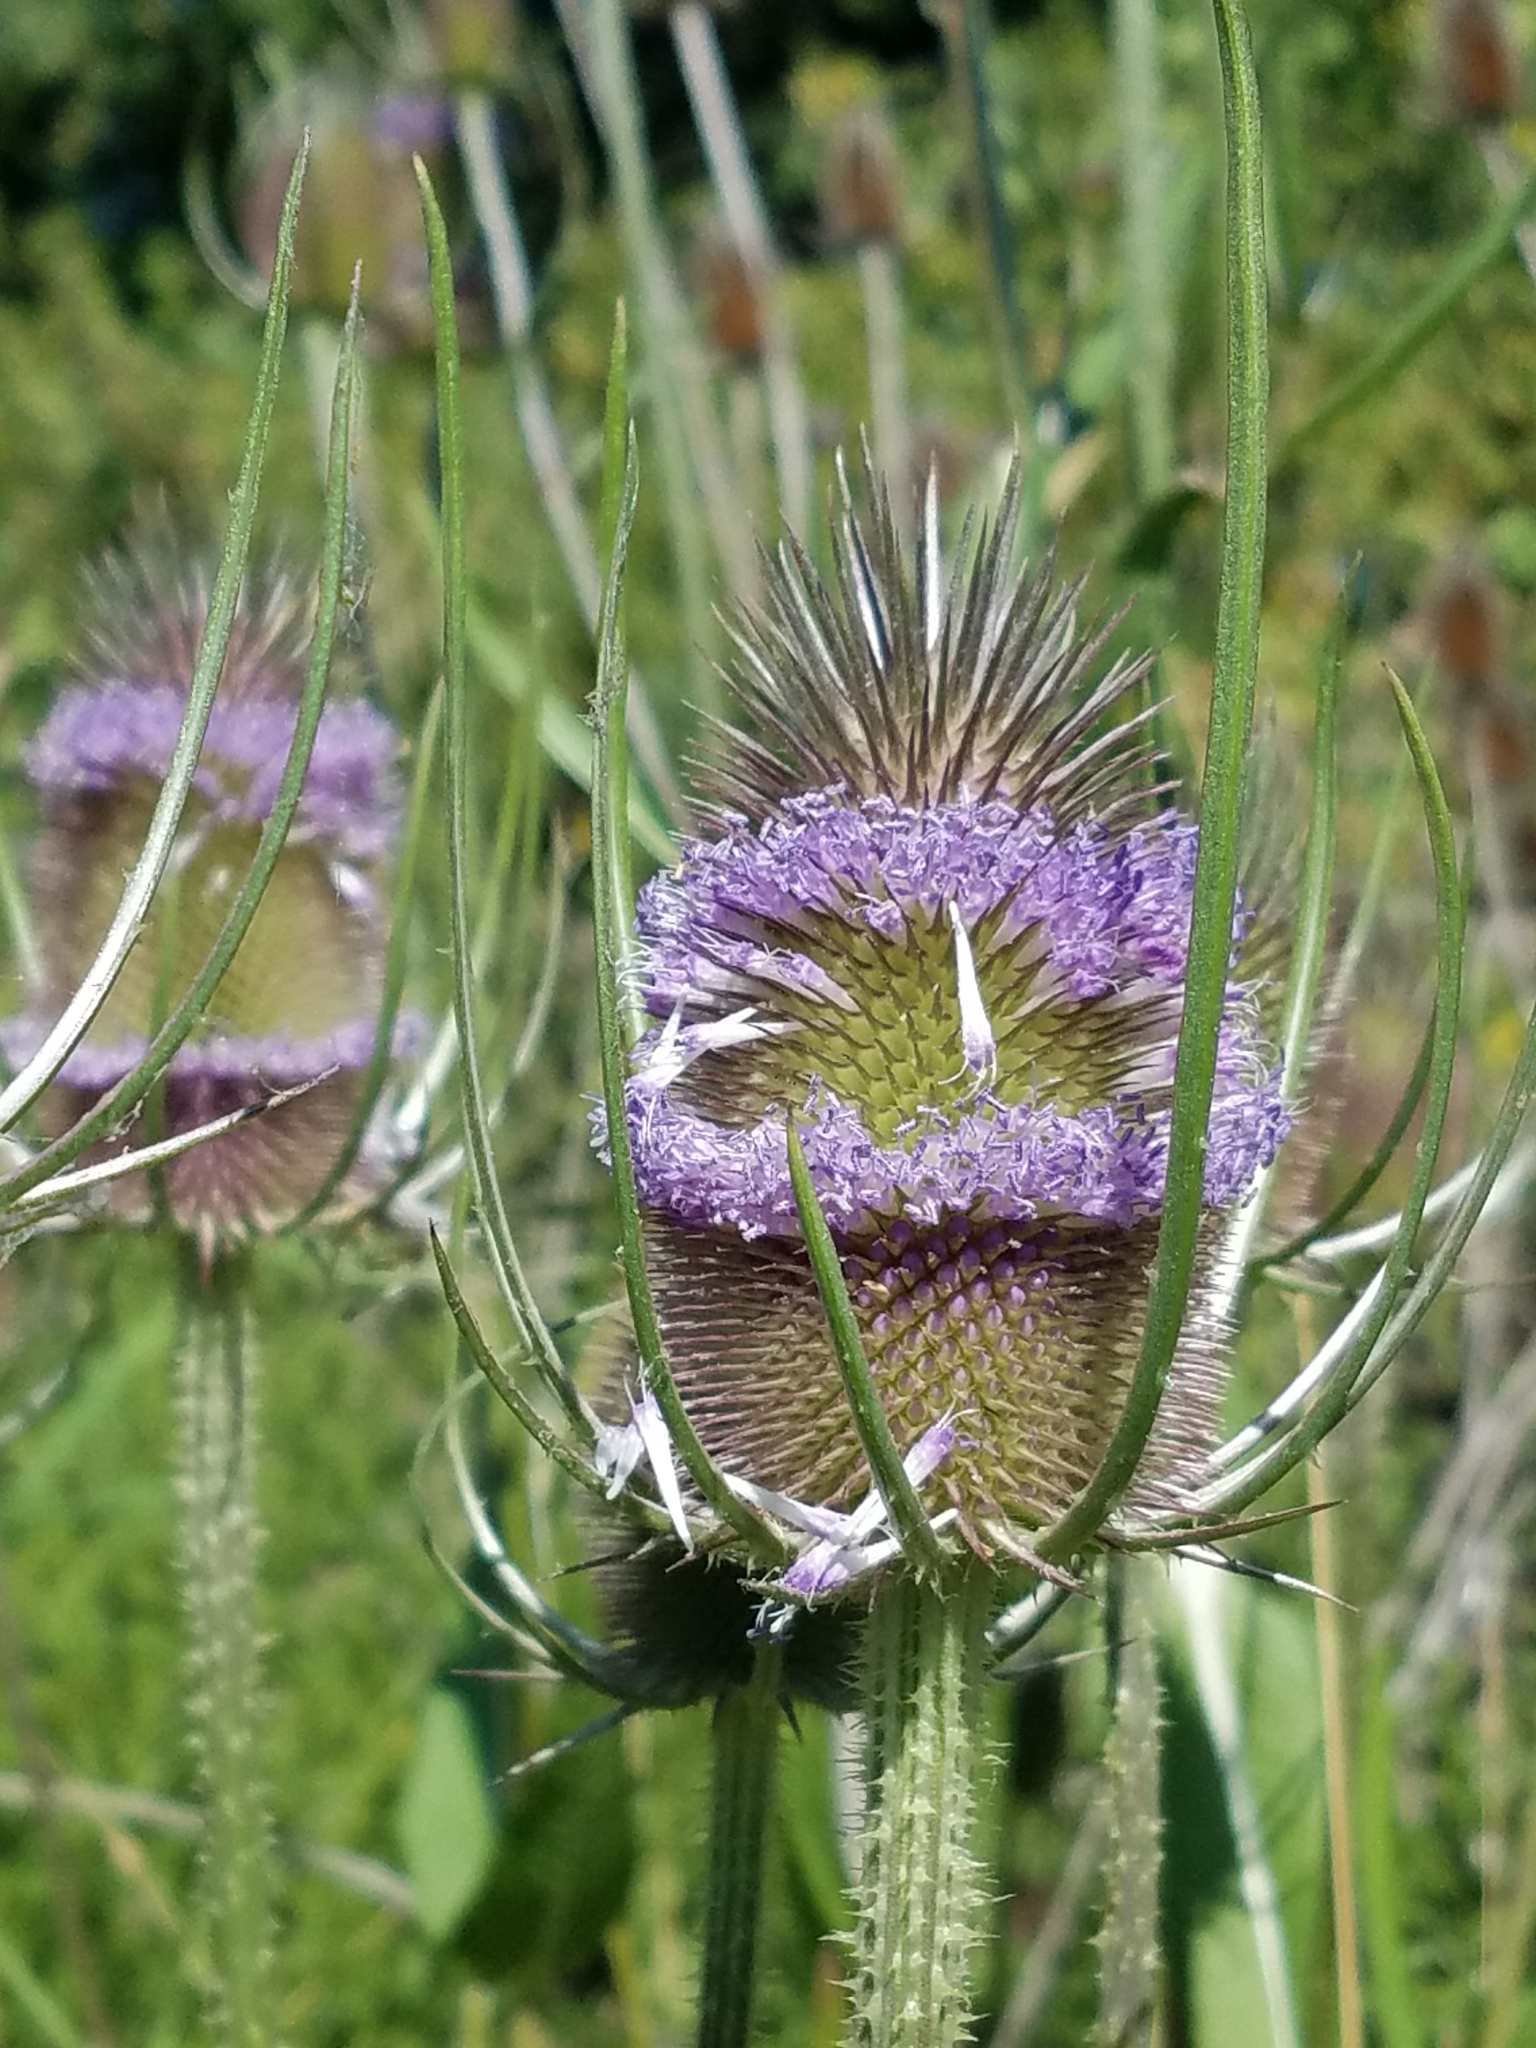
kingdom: Plantae
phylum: Tracheophyta
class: Magnoliopsida
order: Dipsacales
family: Caprifoliaceae
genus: Dipsacus
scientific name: Dipsacus fullonum
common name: Teasel
